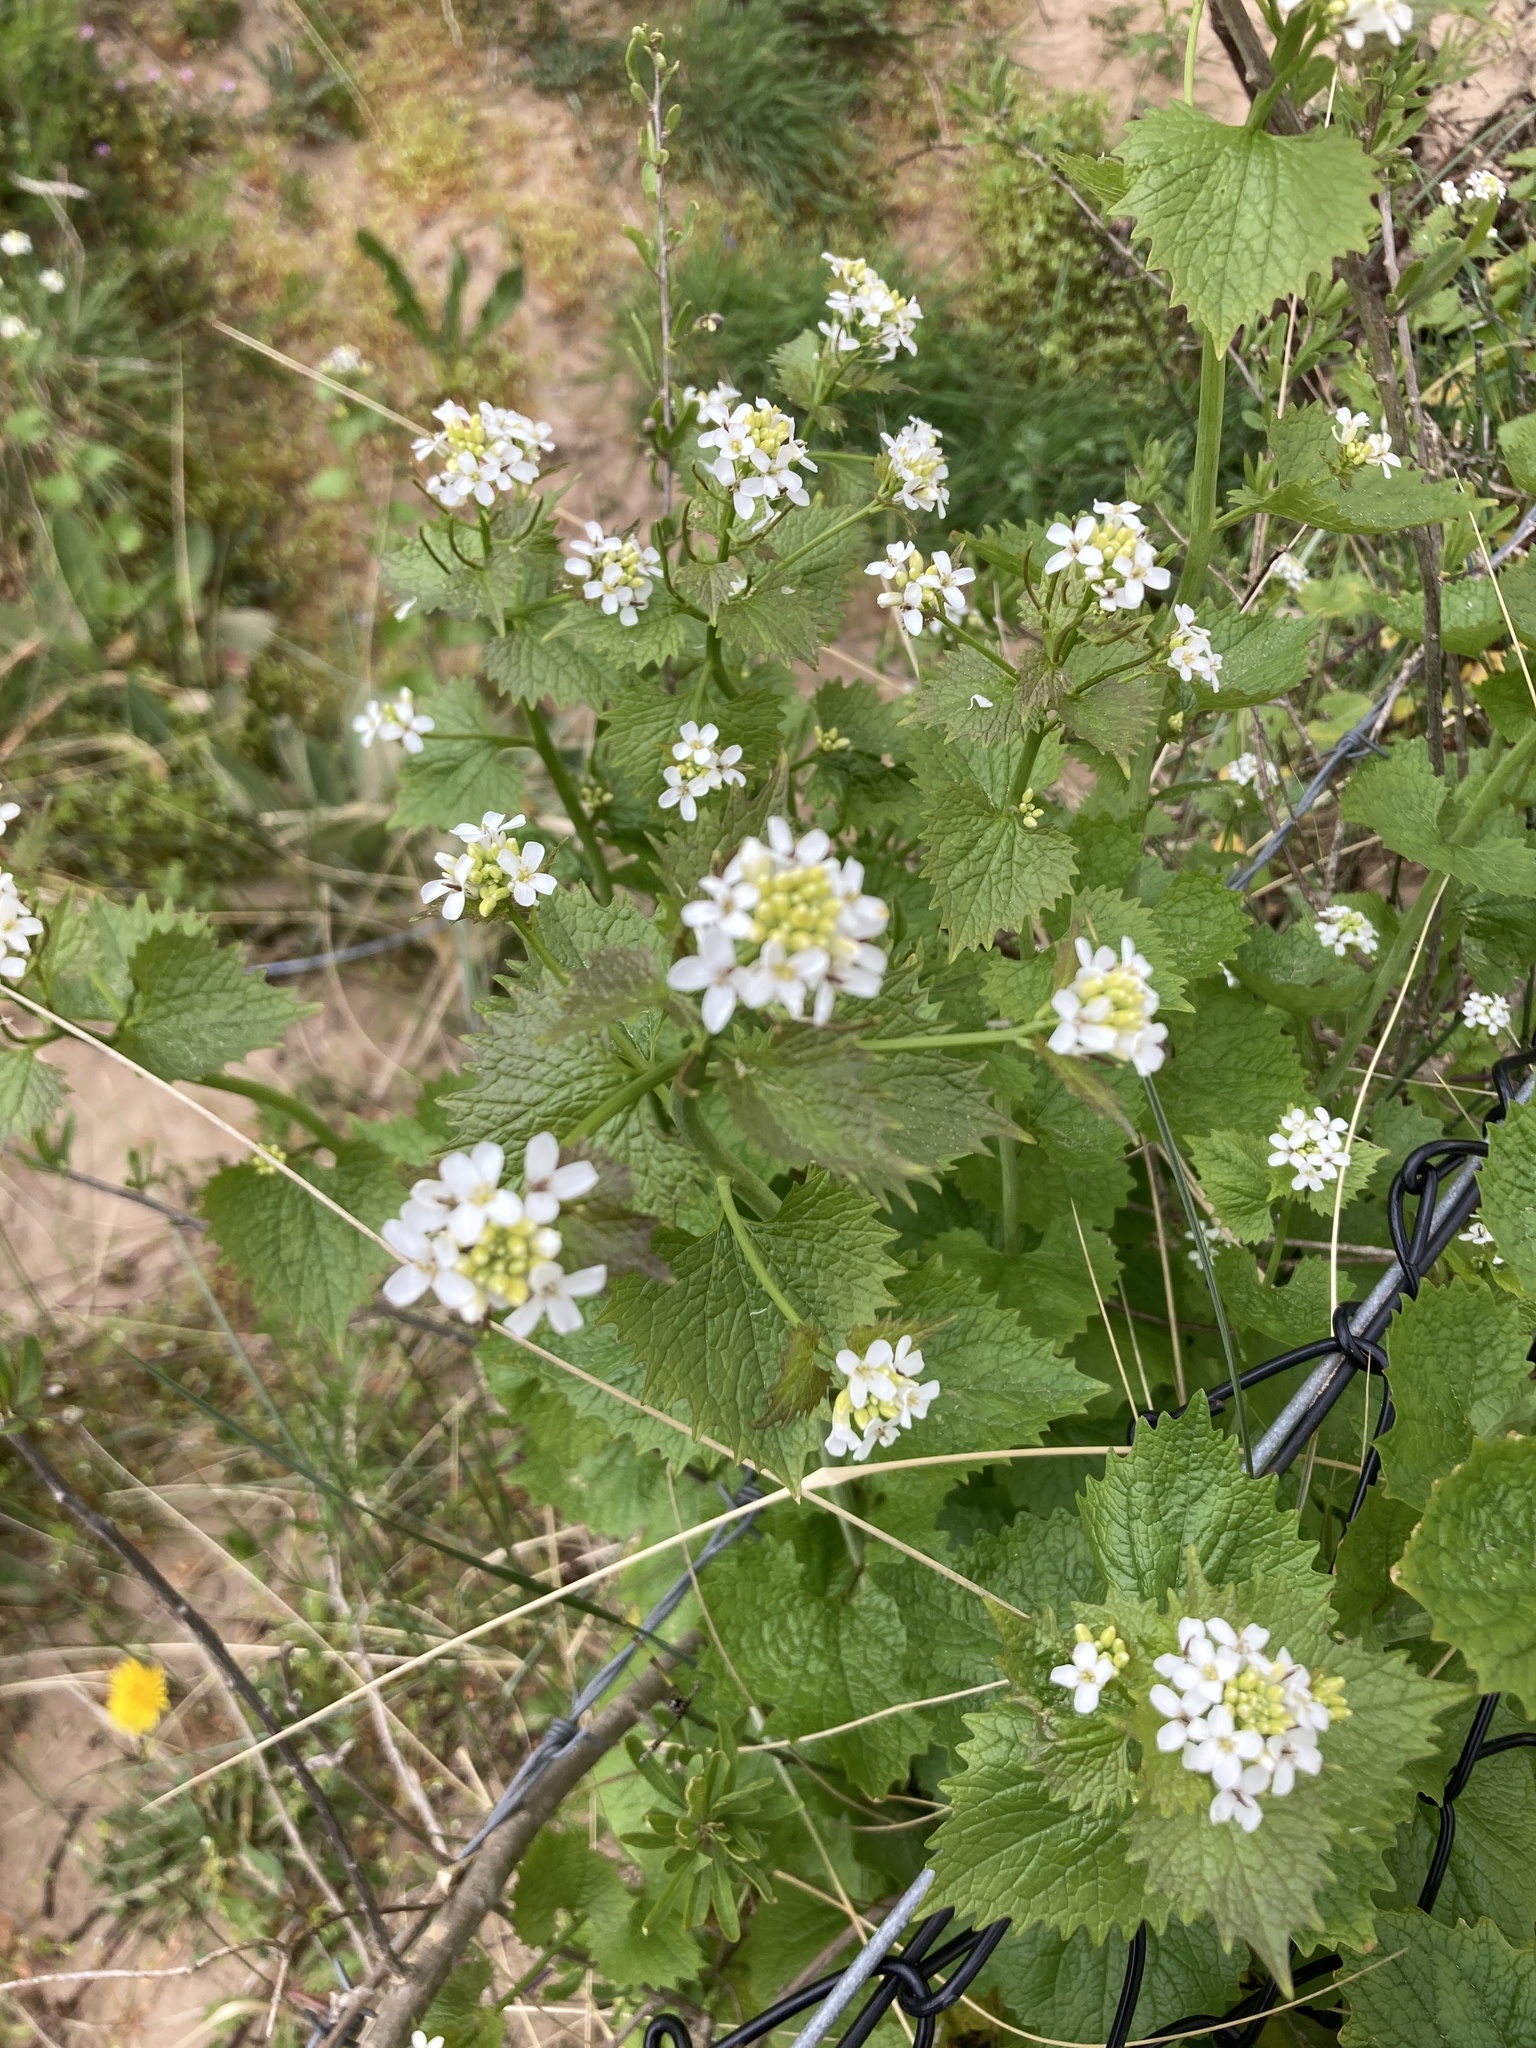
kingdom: Plantae
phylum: Tracheophyta
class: Magnoliopsida
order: Brassicales
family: Brassicaceae
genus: Alliaria
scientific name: Alliaria petiolata
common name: Garlic mustard
